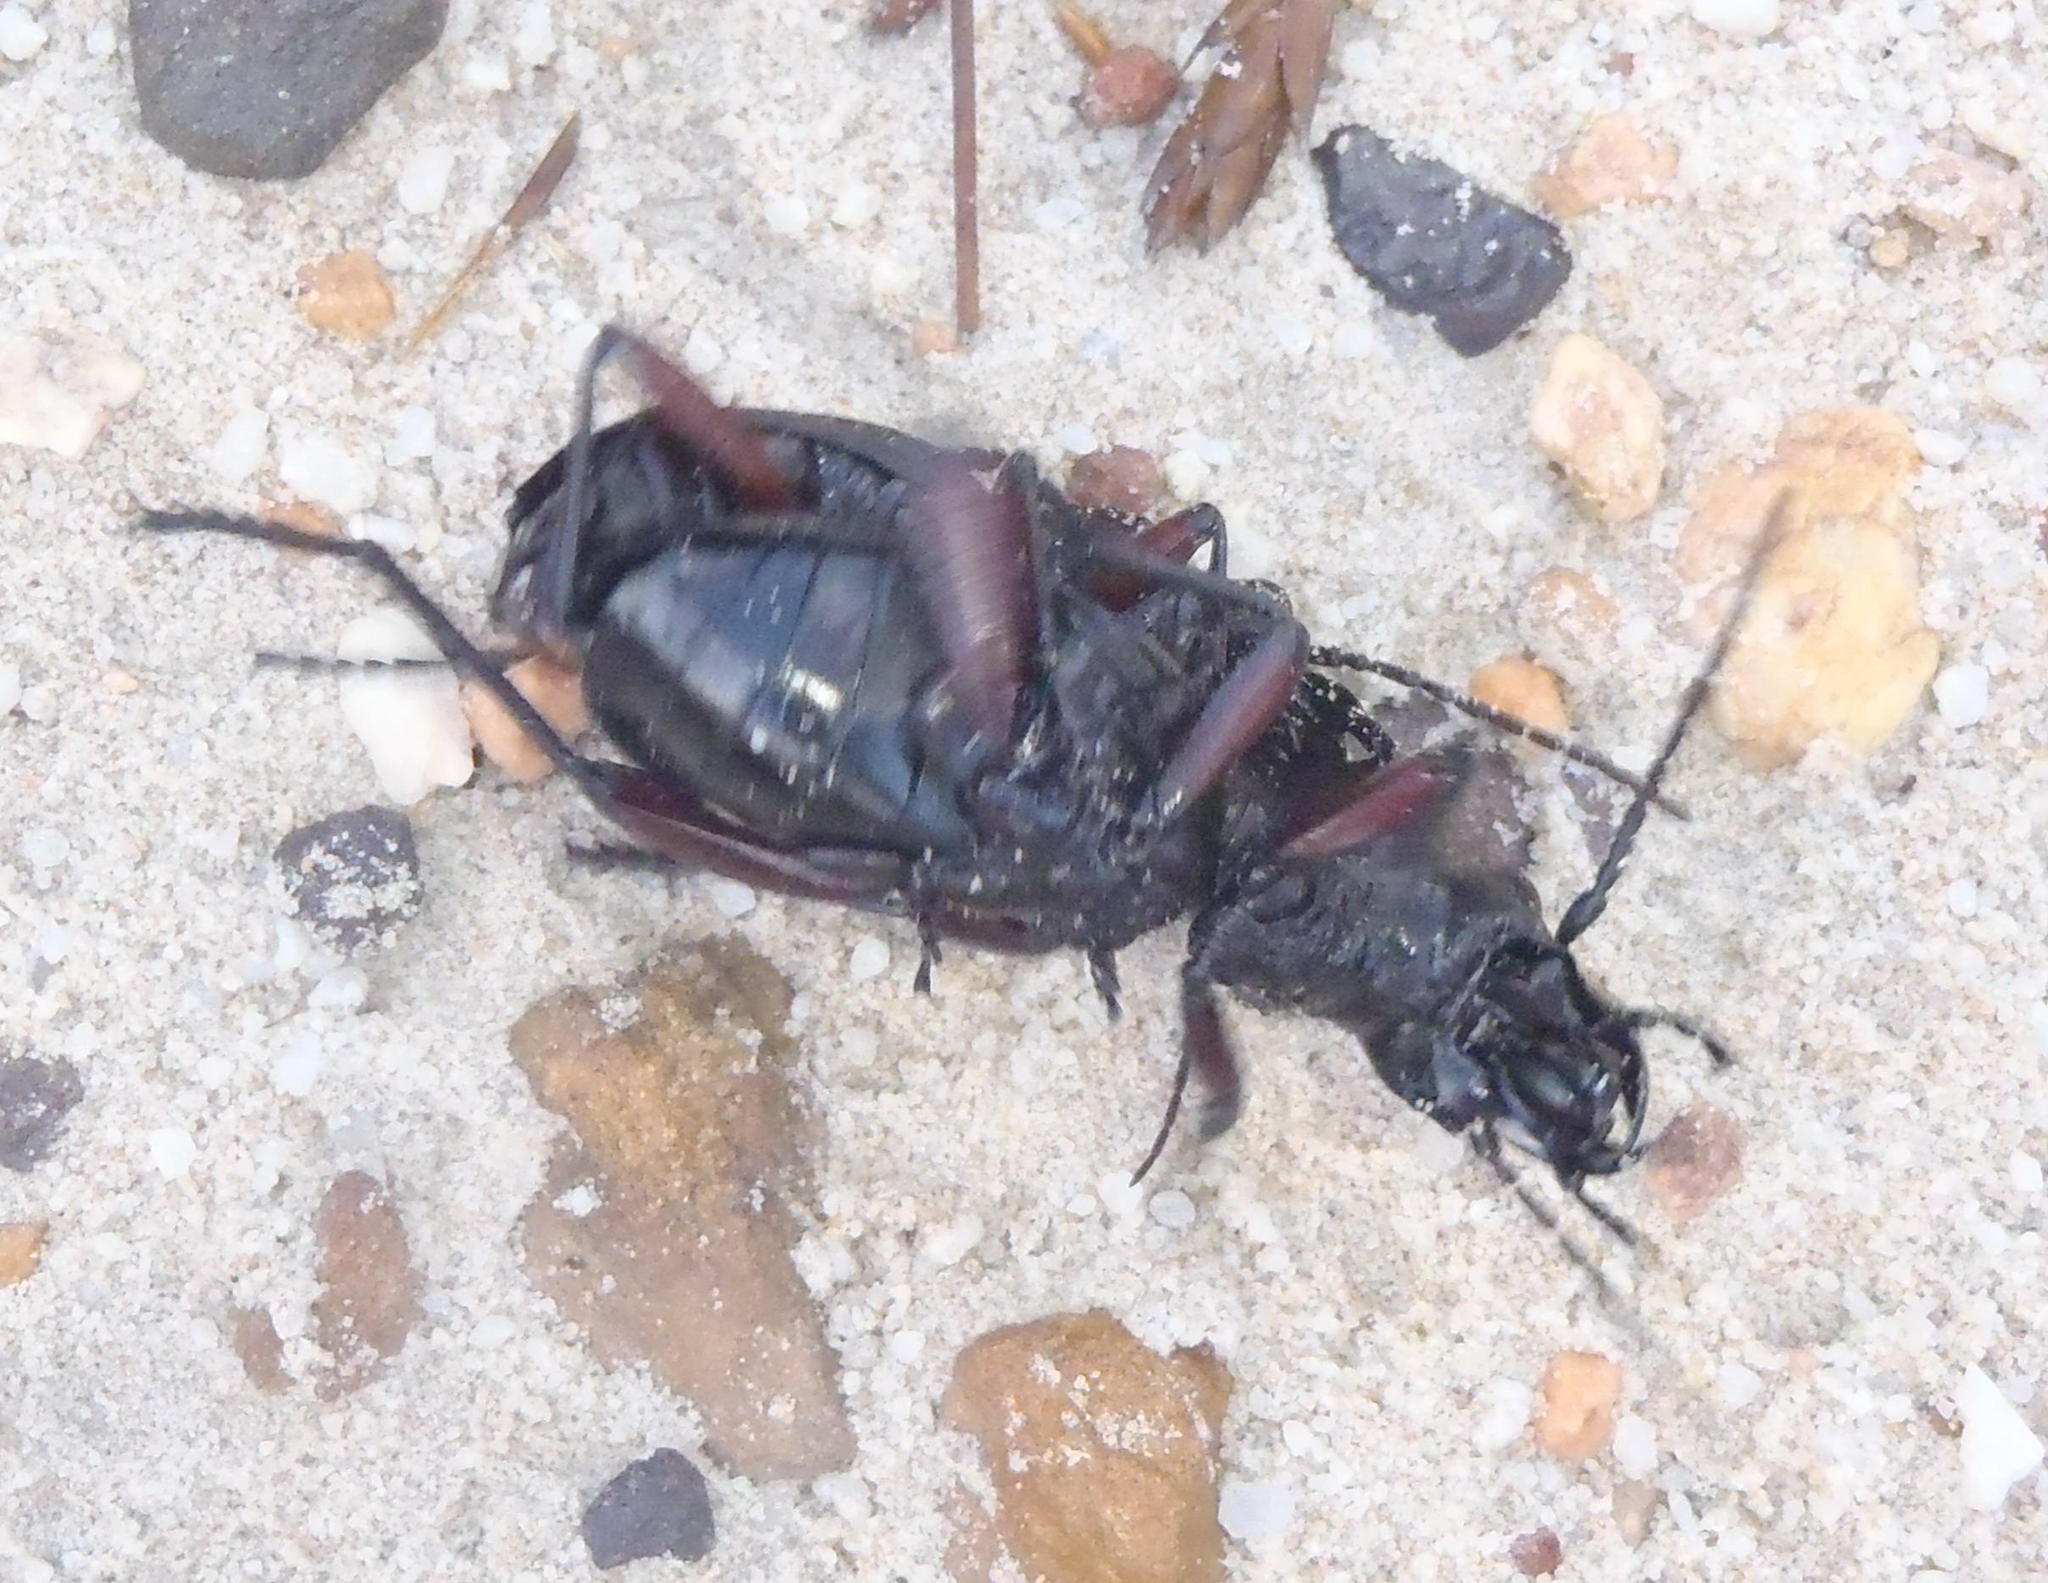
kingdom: Animalia
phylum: Arthropoda
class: Insecta
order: Coleoptera
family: Carabidae
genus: Anthia
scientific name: Anthia decemguttata
